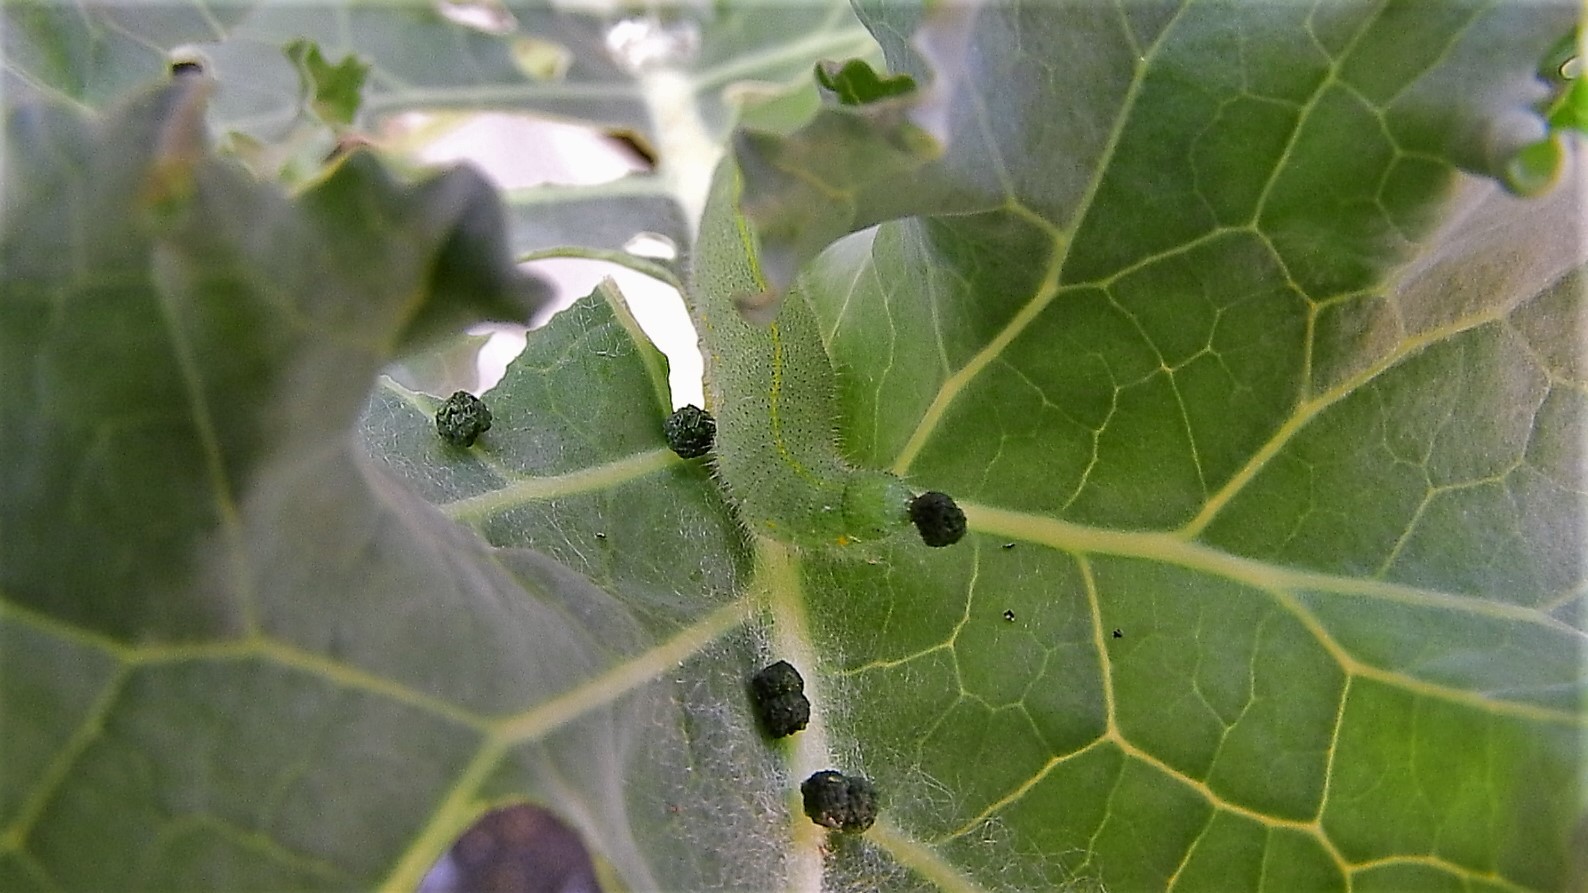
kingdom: Animalia
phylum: Arthropoda
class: Insecta
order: Lepidoptera
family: Pieridae
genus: Pieris
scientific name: Pieris rapae
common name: Small white
